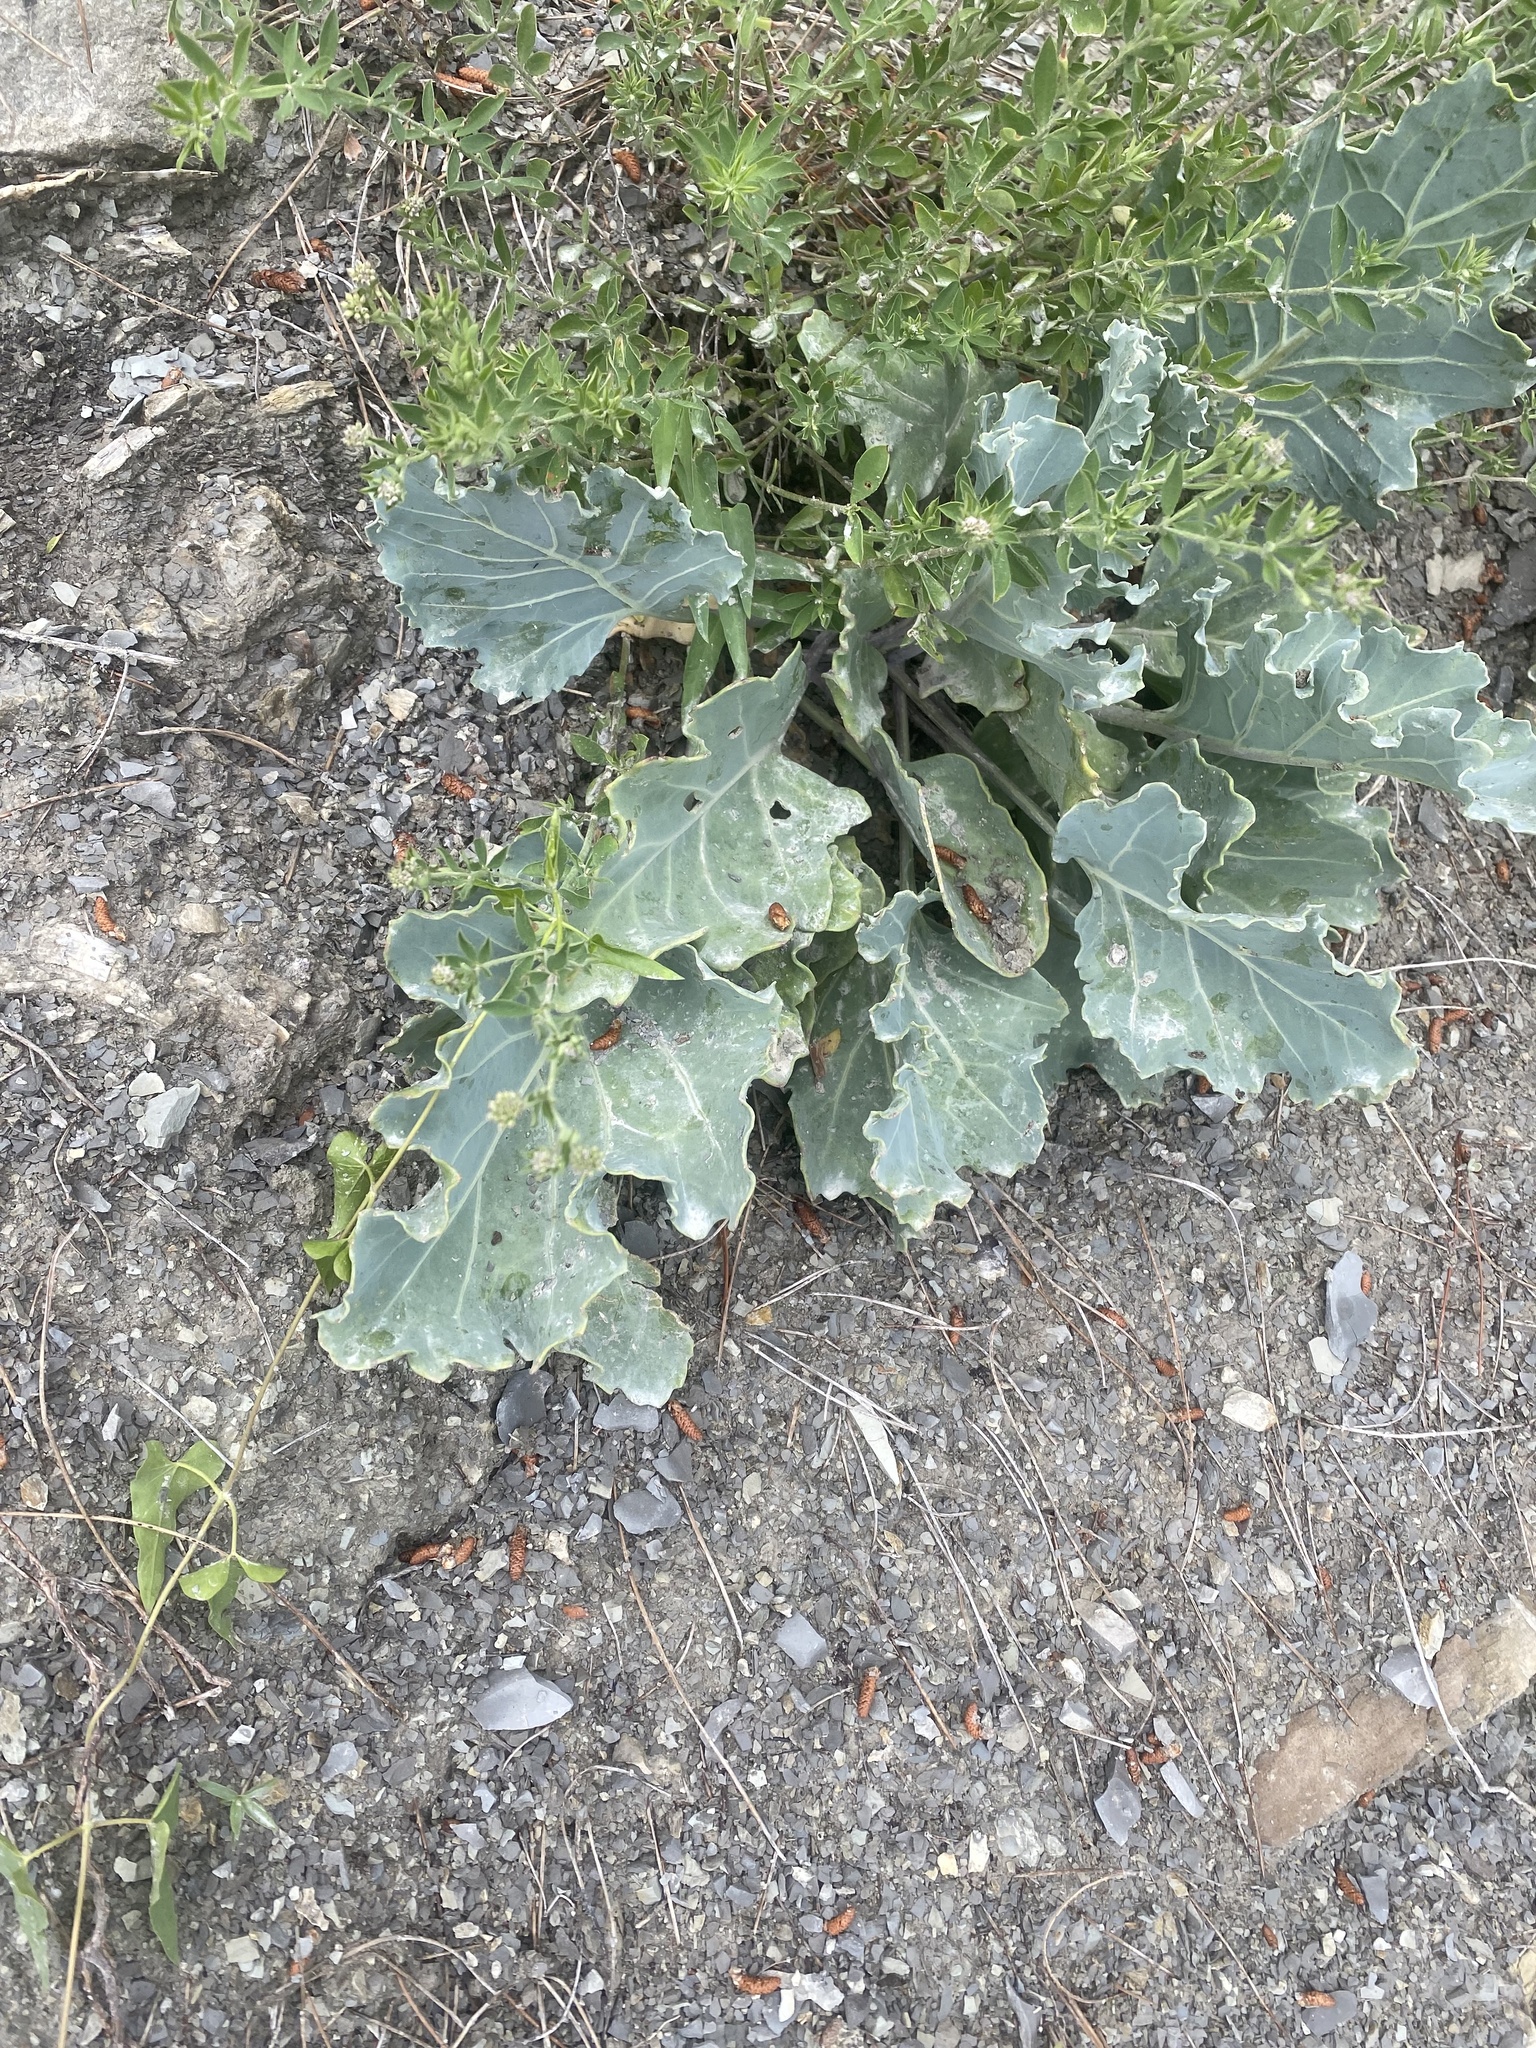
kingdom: Plantae
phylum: Tracheophyta
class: Magnoliopsida
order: Brassicales
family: Brassicaceae
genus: Crambe
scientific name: Crambe maritima
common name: Sea-kale
